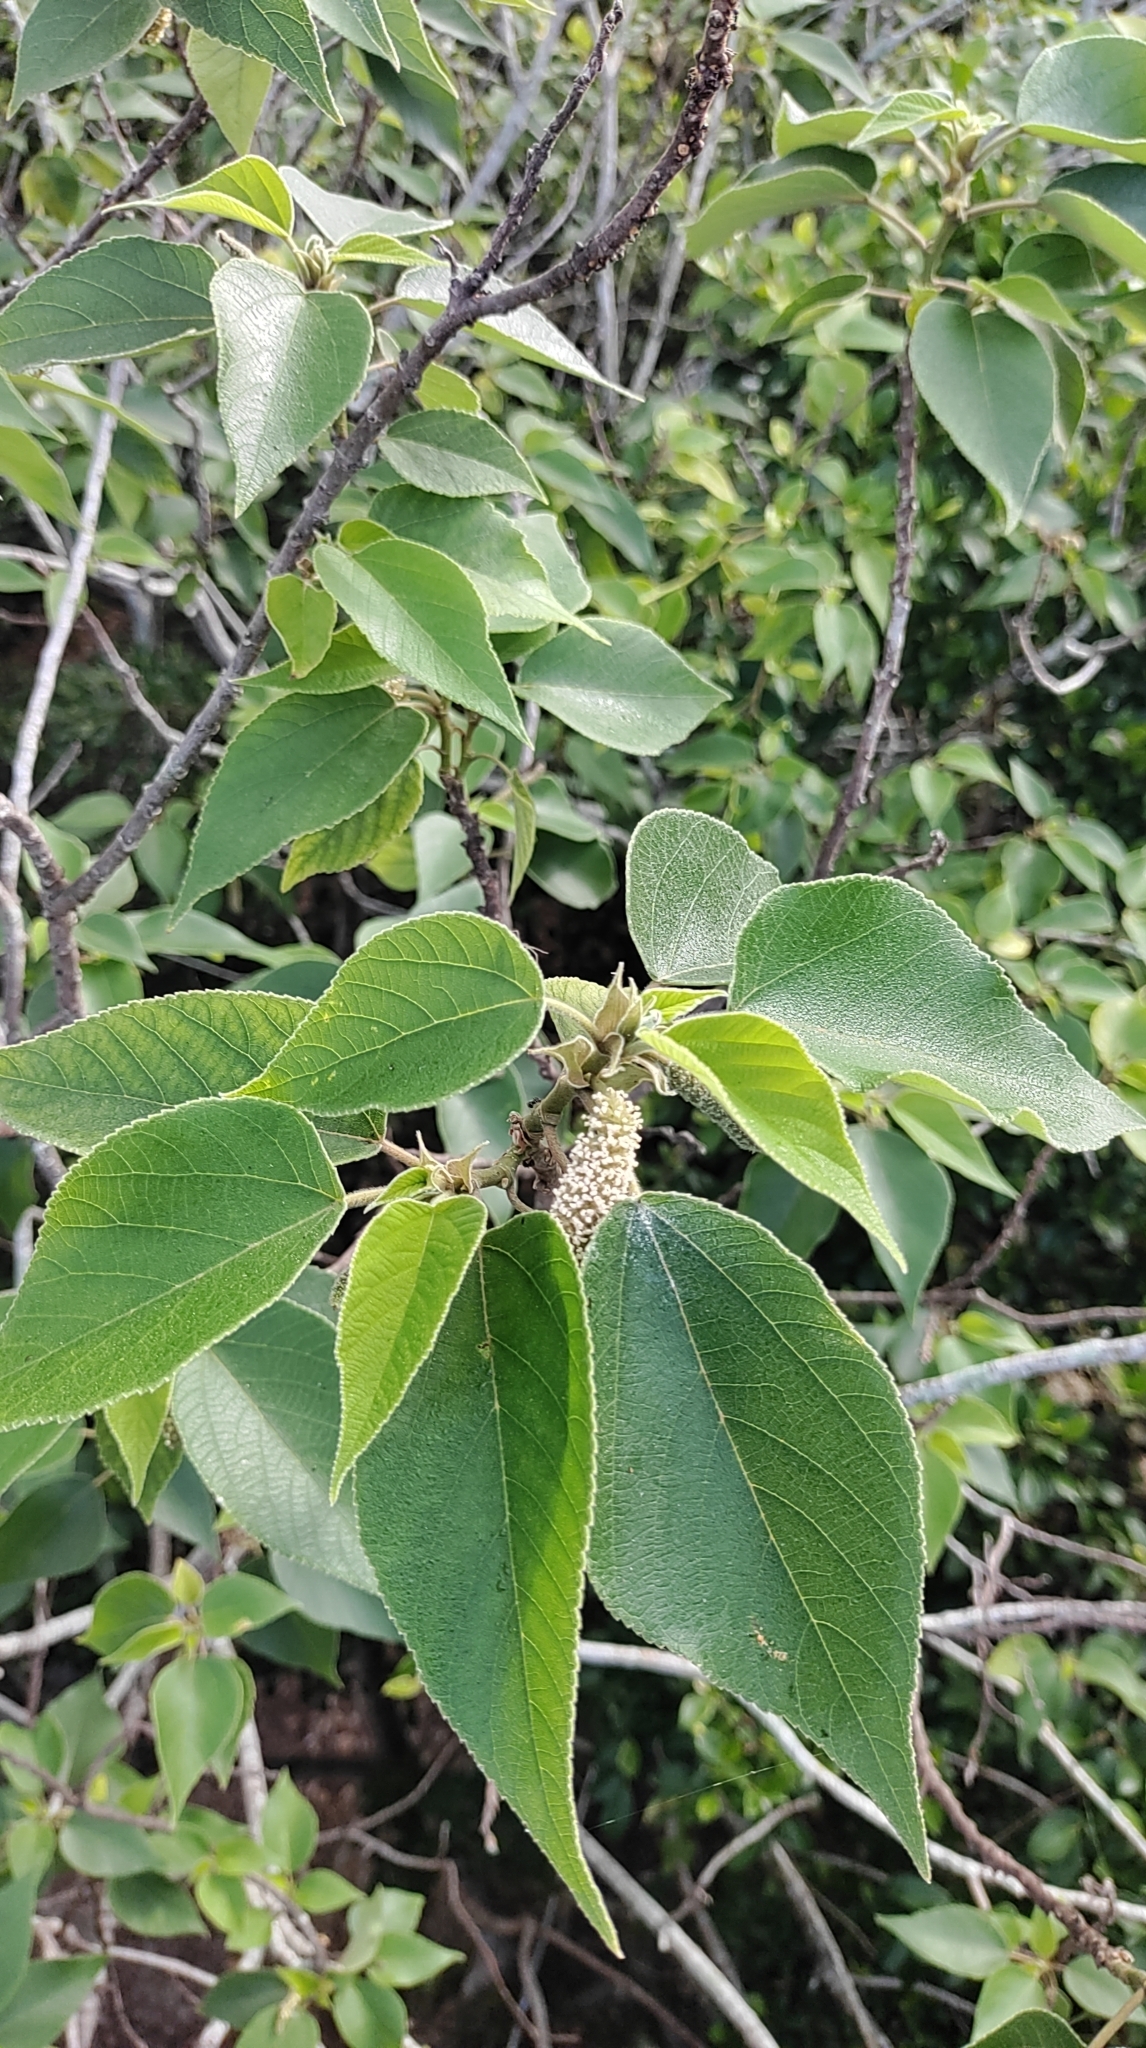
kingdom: Plantae
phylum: Tracheophyta
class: Magnoliopsida
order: Rosales
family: Moraceae
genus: Broussonetia
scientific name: Broussonetia papyrifera
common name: Paper mulberry
